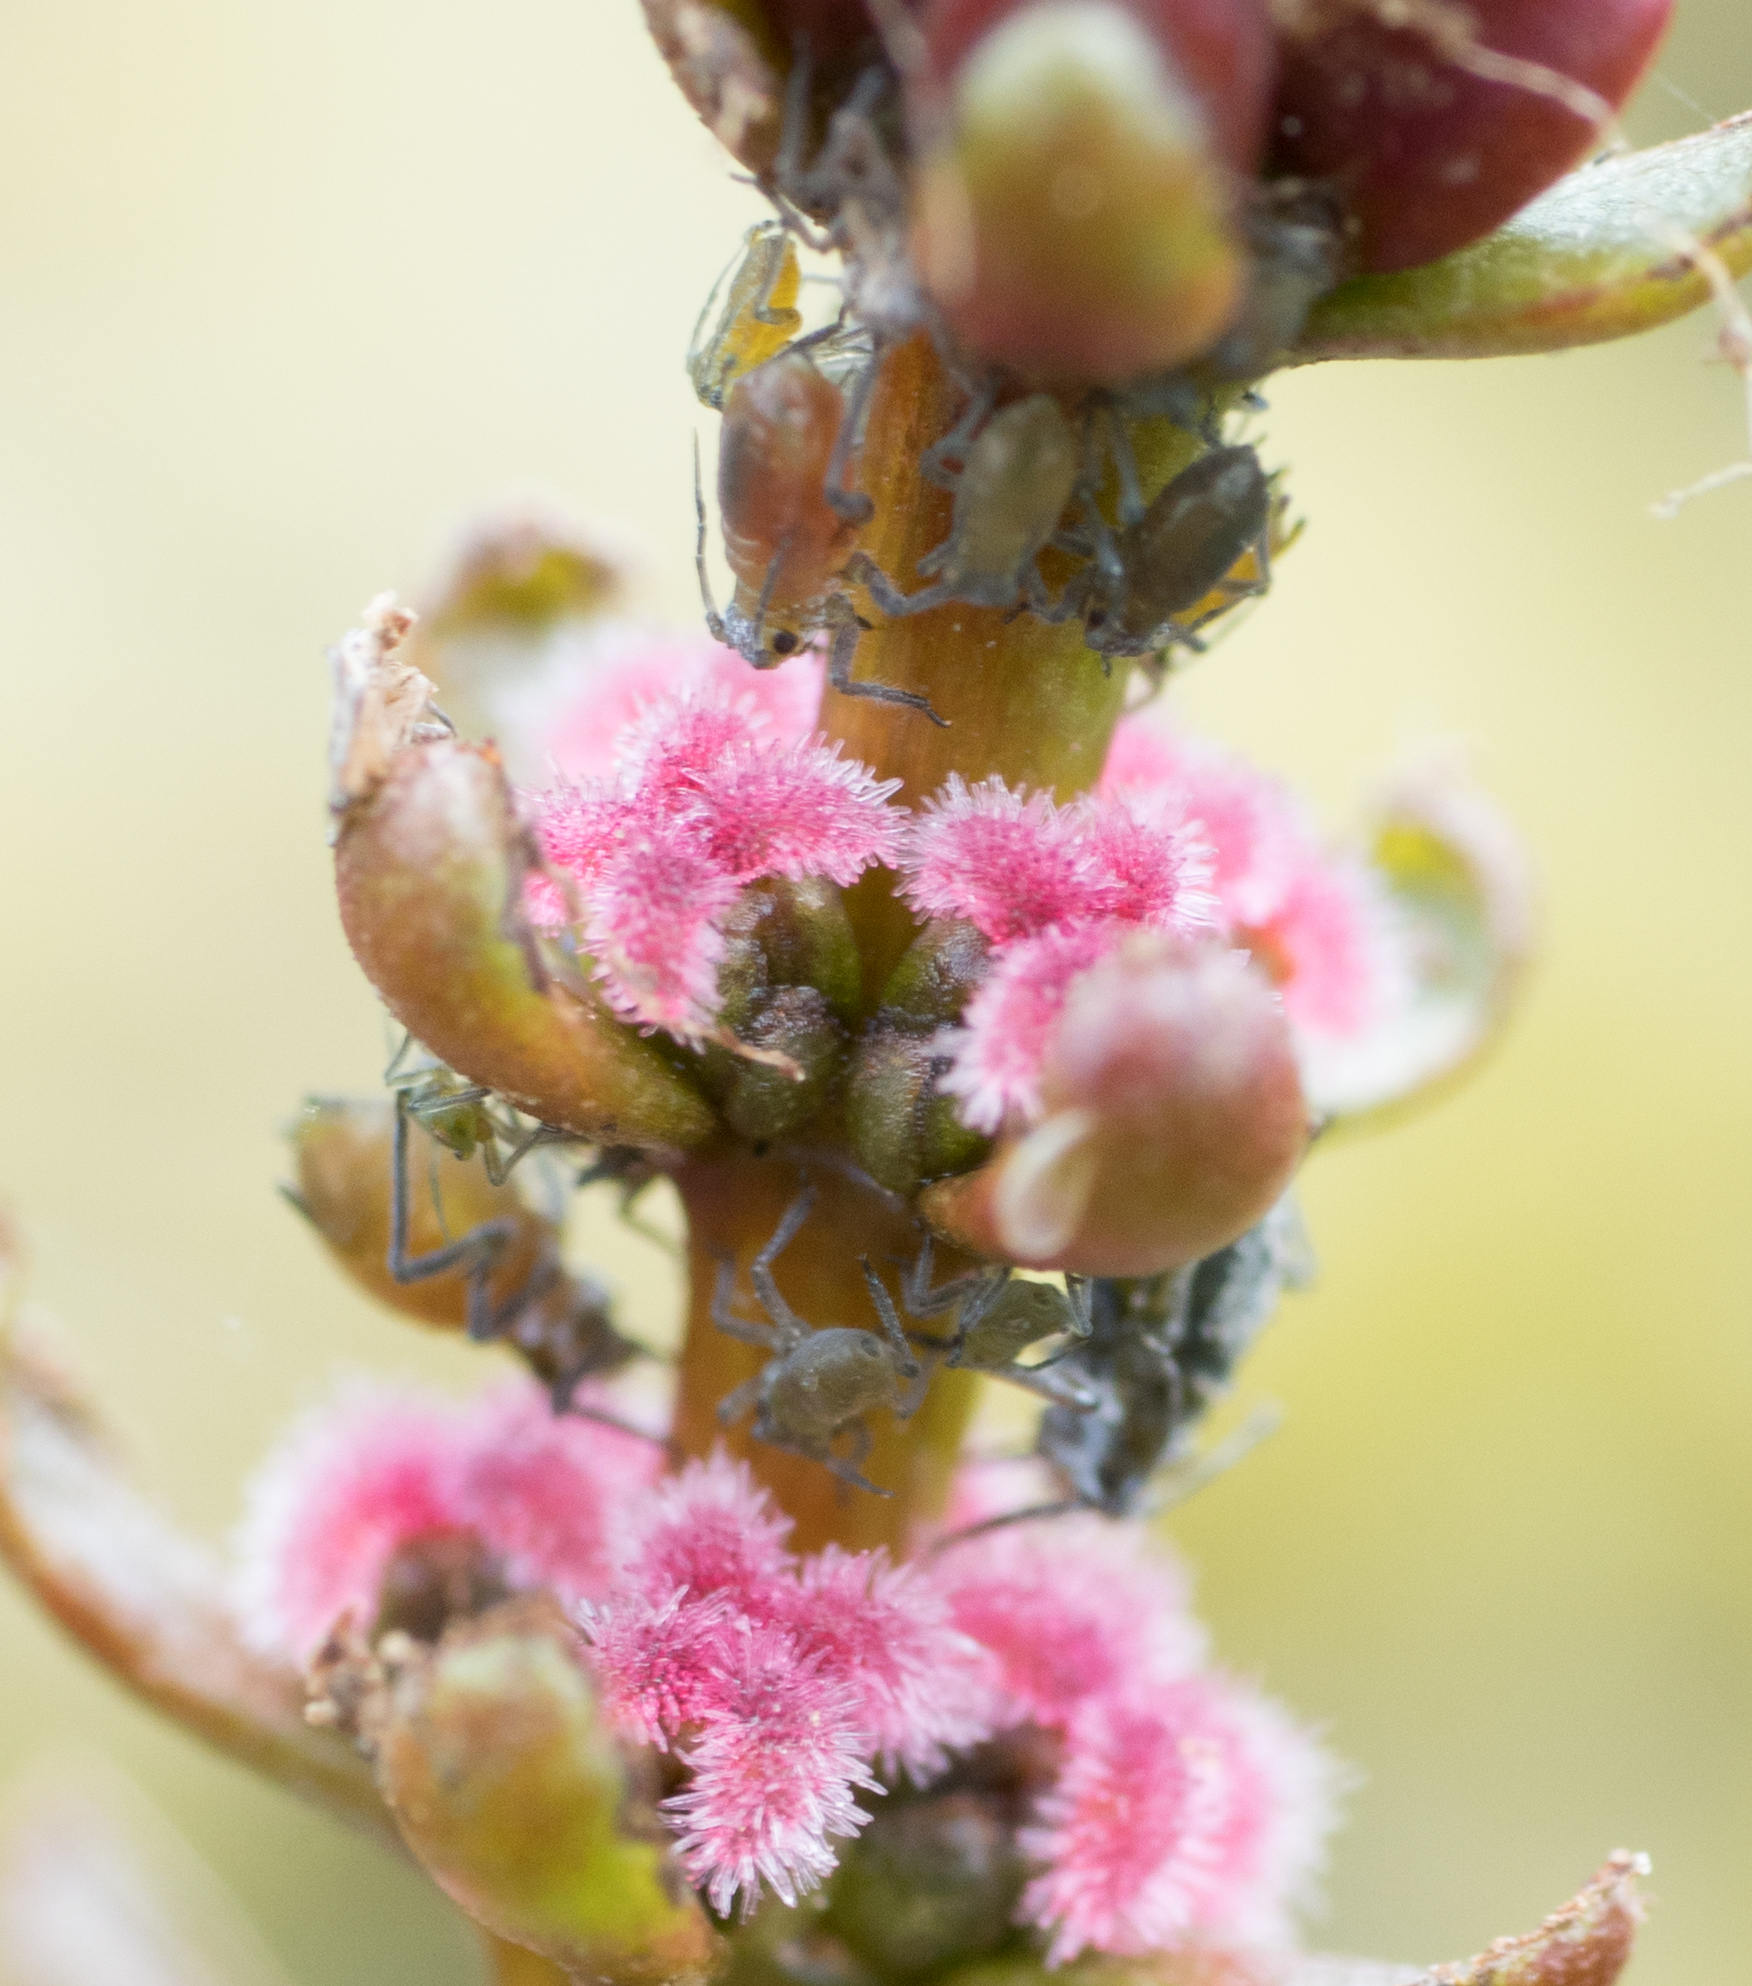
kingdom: Animalia
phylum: Arthropoda
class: Insecta
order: Hemiptera
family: Aphididae
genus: Rhopalosiphum
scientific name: Rhopalosiphum nymphaeae
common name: Water lily aphid
